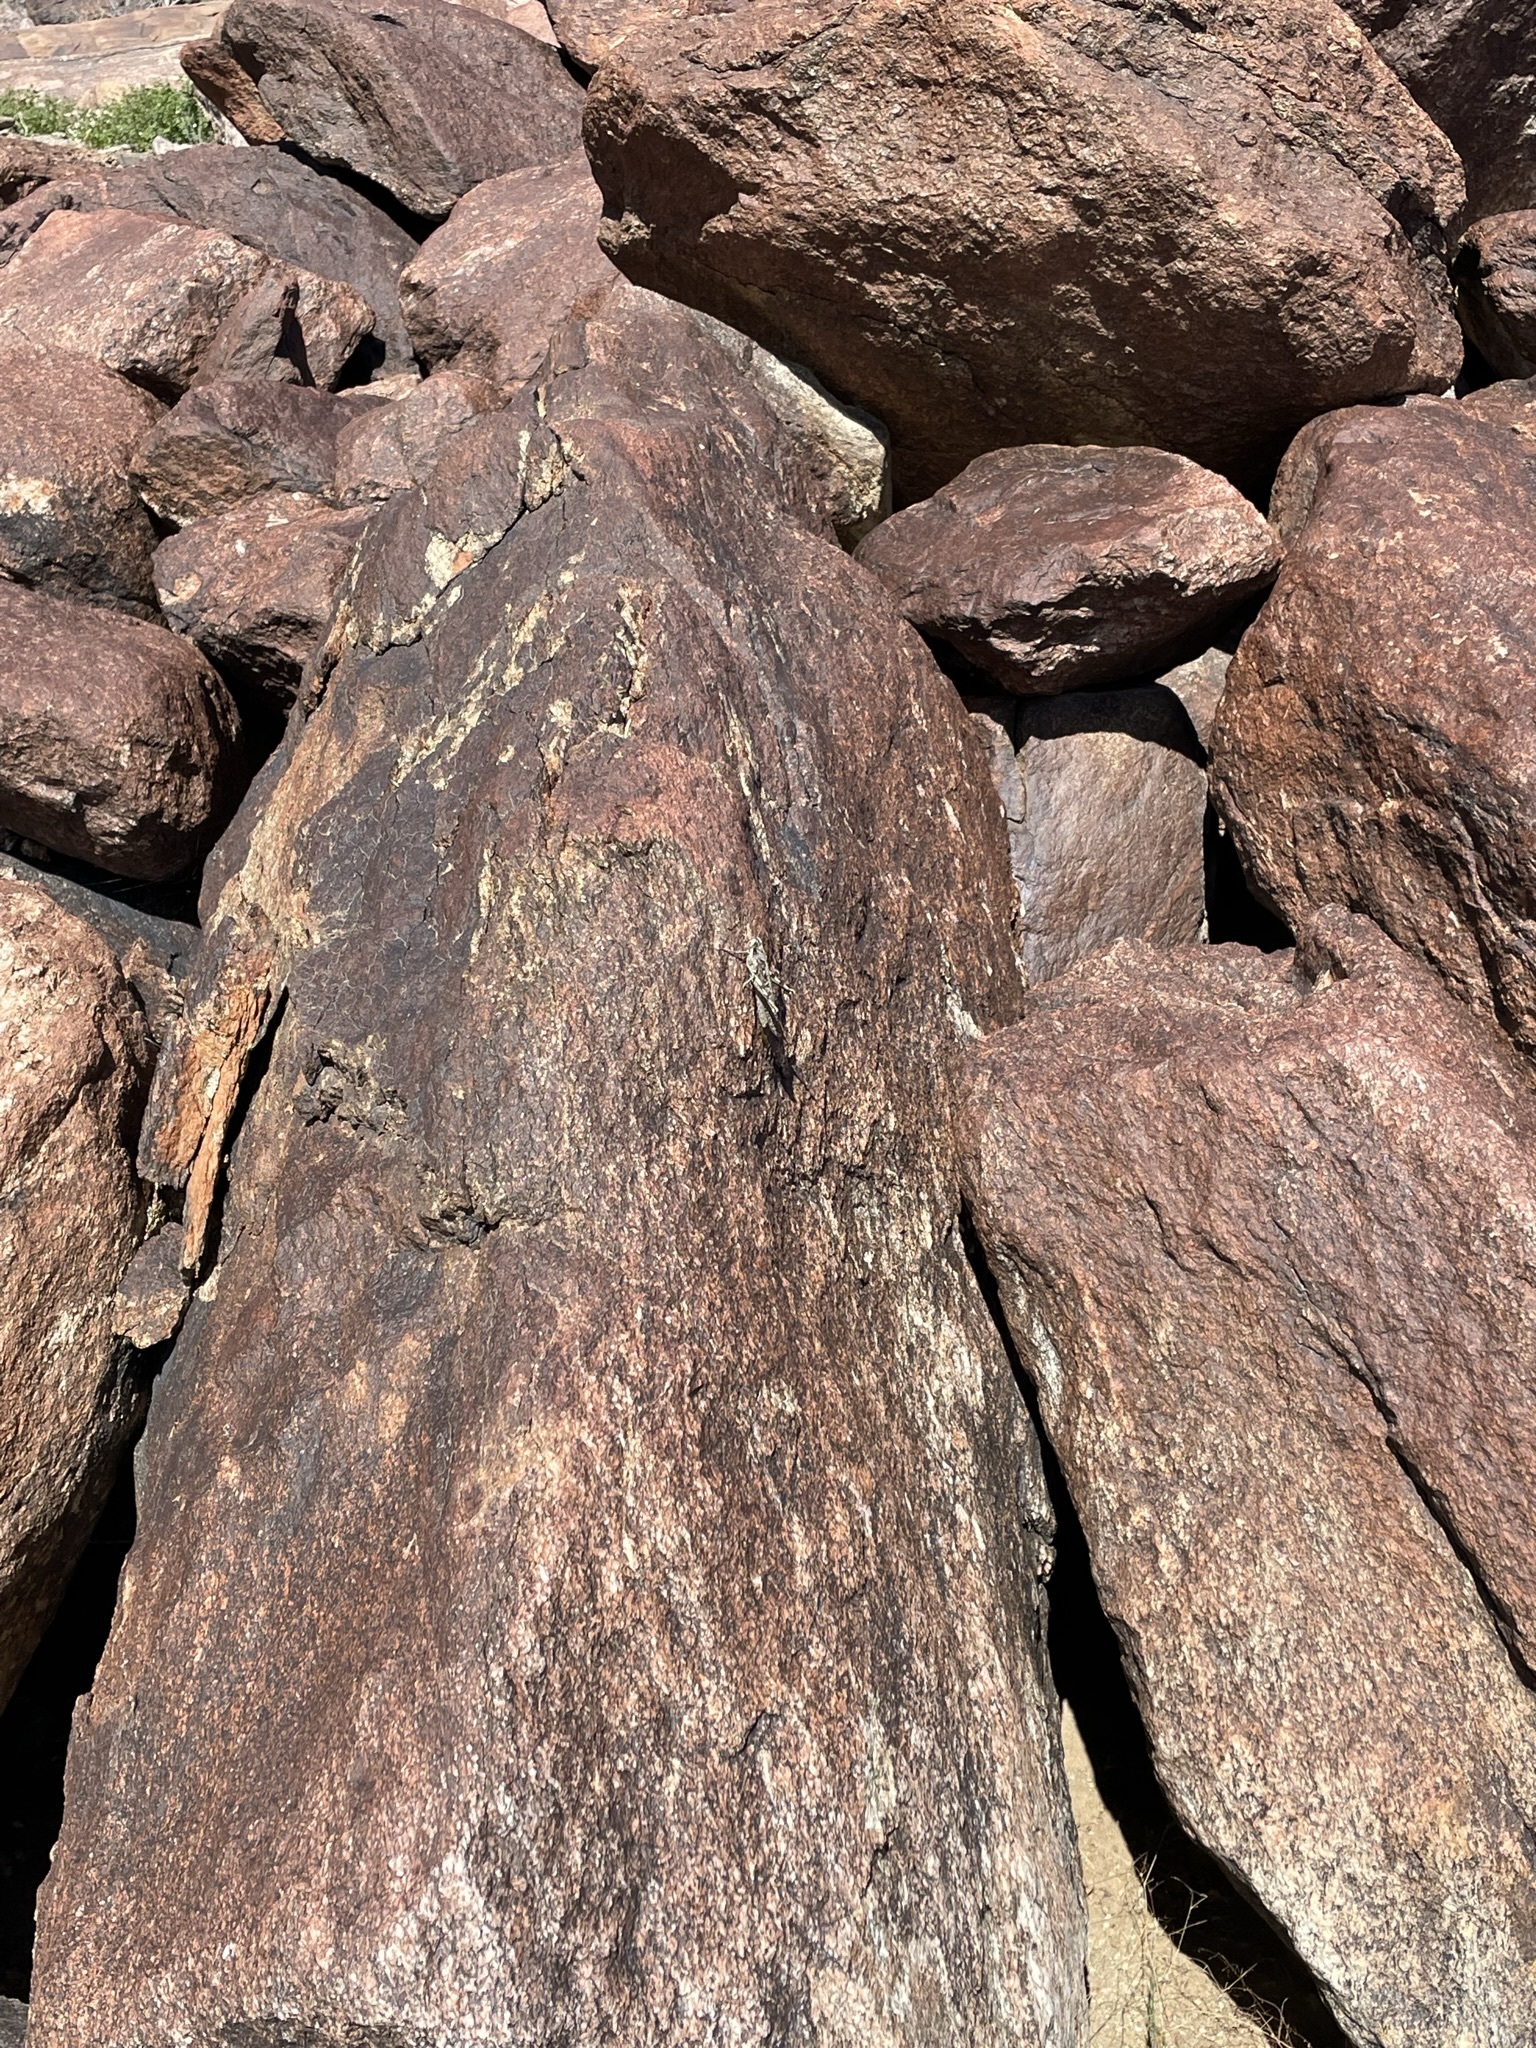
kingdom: Animalia
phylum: Arthropoda
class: Insecta
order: Orthoptera
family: Acrididae
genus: Schistocerca
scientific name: Schistocerca nitens
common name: Vagrant grasshopper
